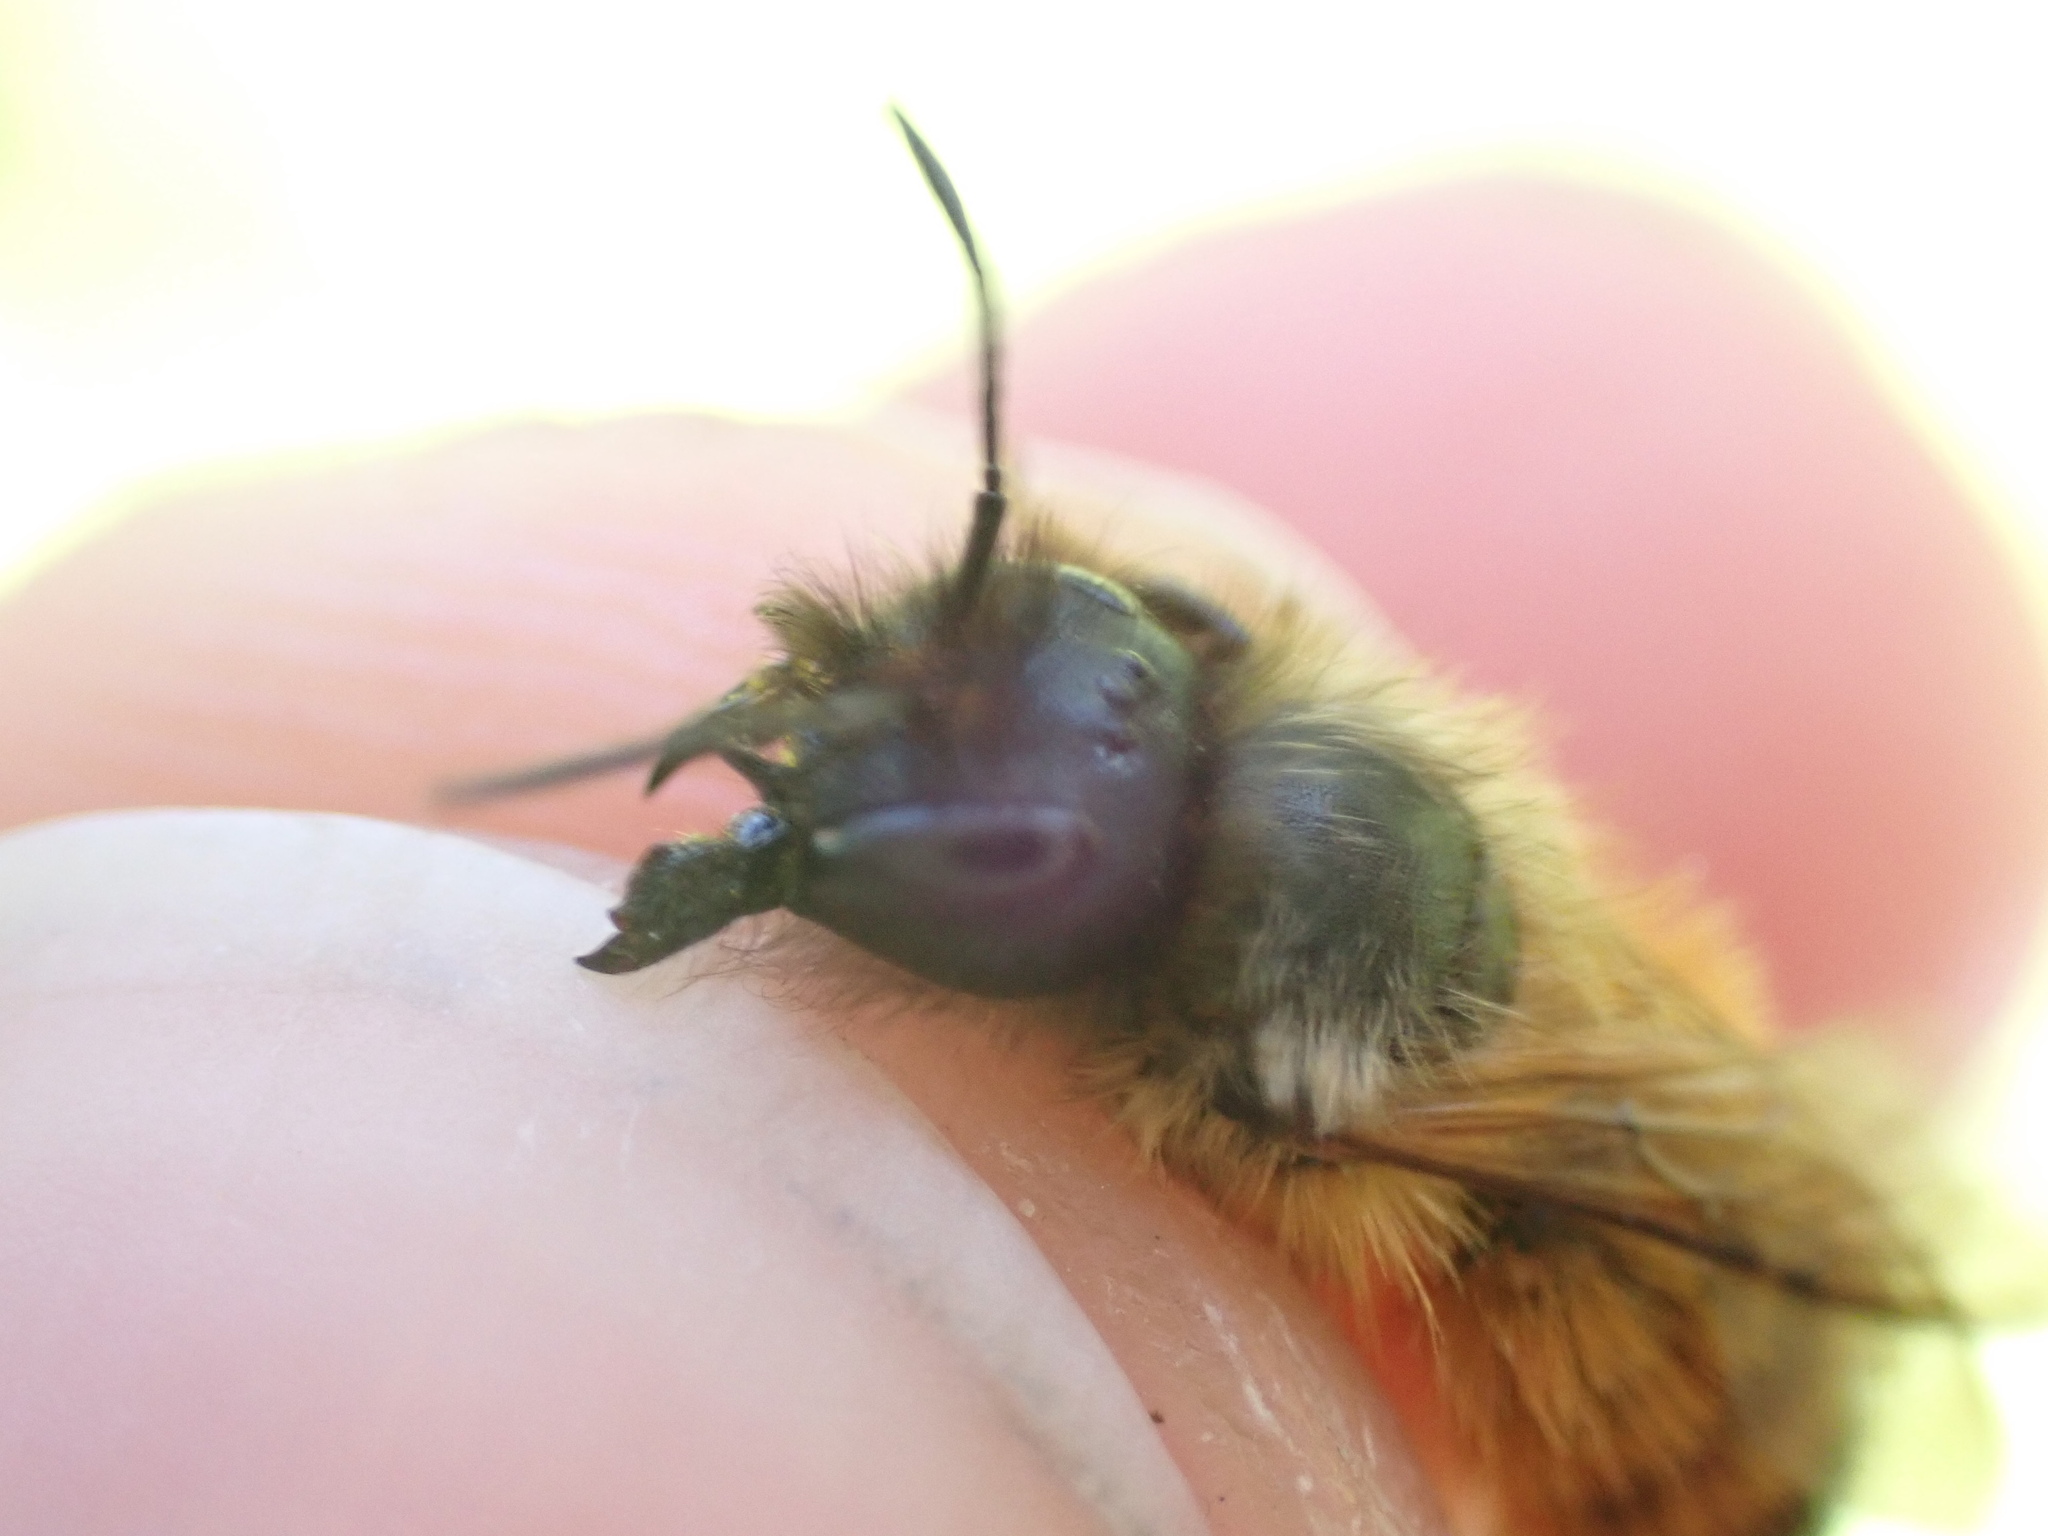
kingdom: Animalia
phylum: Arthropoda
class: Insecta
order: Hymenoptera
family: Megachilidae
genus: Osmia
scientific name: Osmia bicornis
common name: Red mason bee
